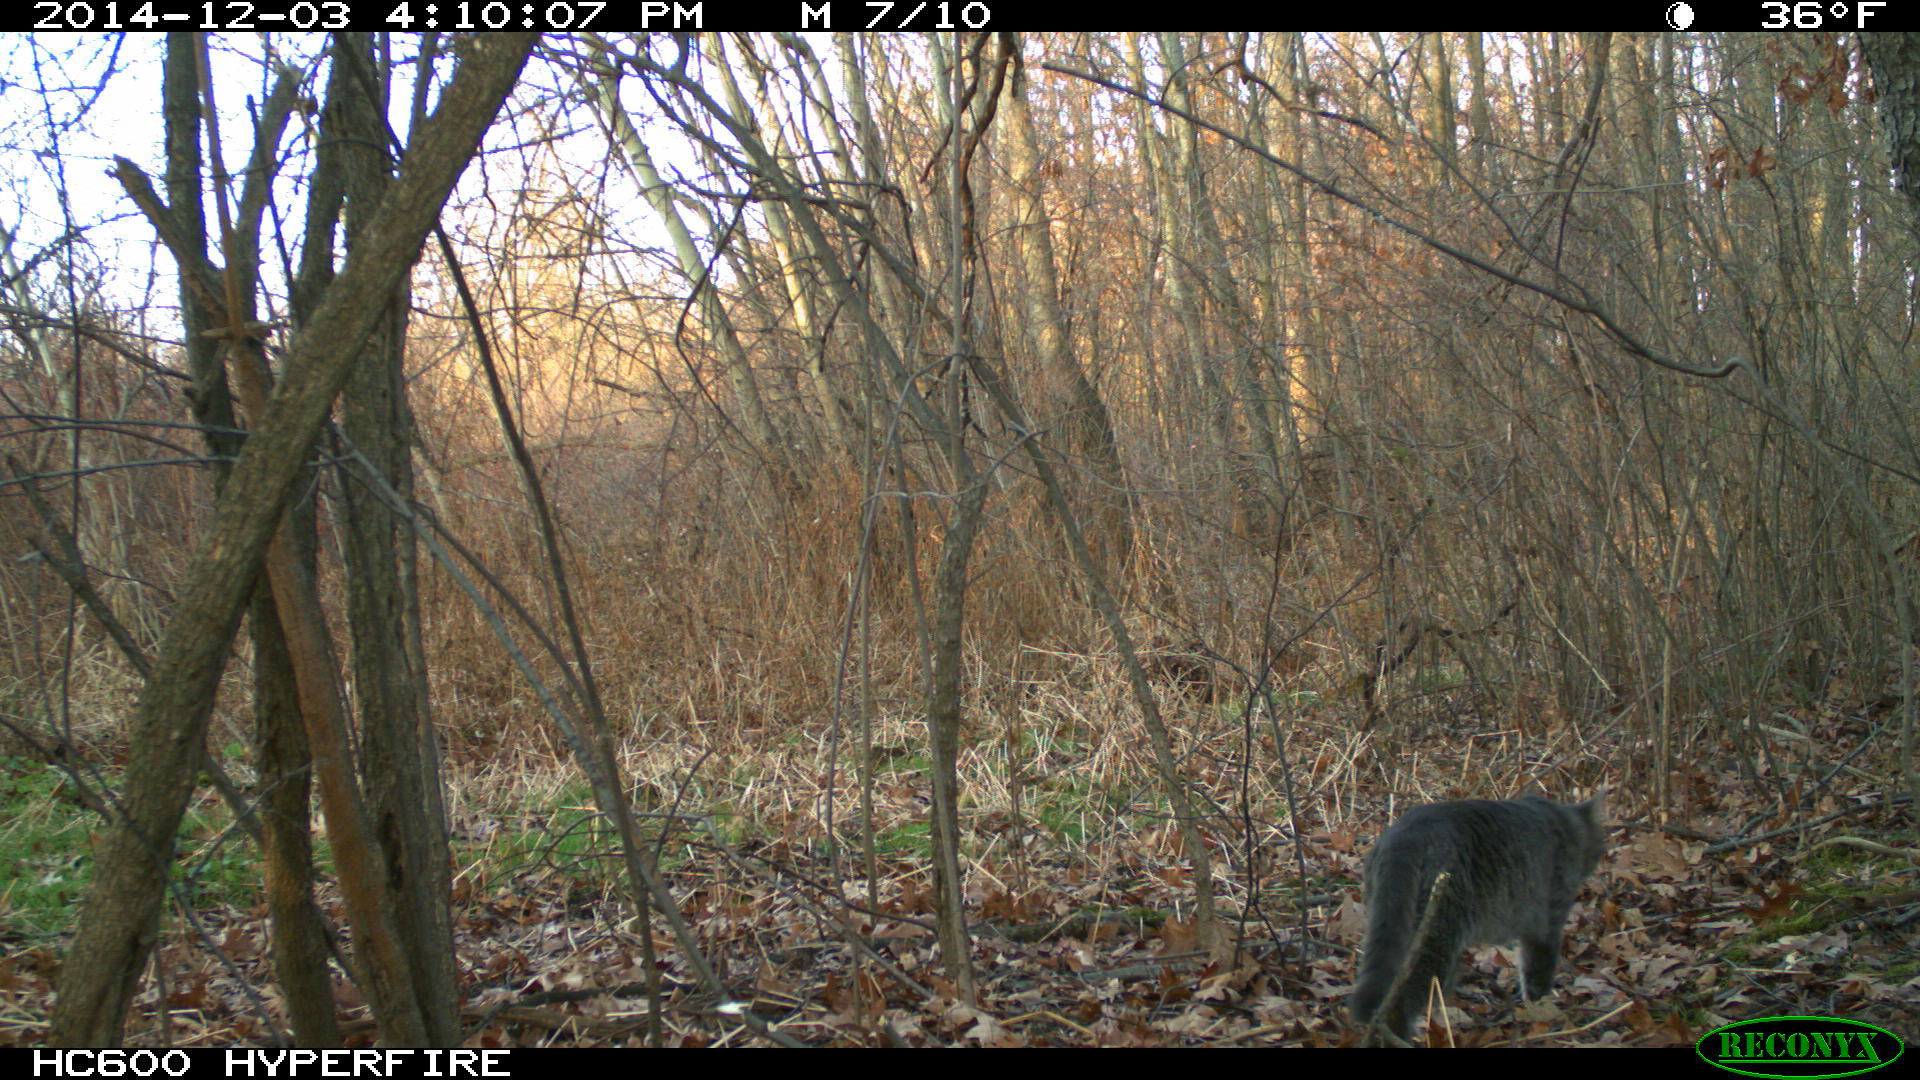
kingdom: Animalia
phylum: Chordata
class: Mammalia
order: Carnivora
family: Felidae
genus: Felis
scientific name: Felis catus
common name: Domestic cat
